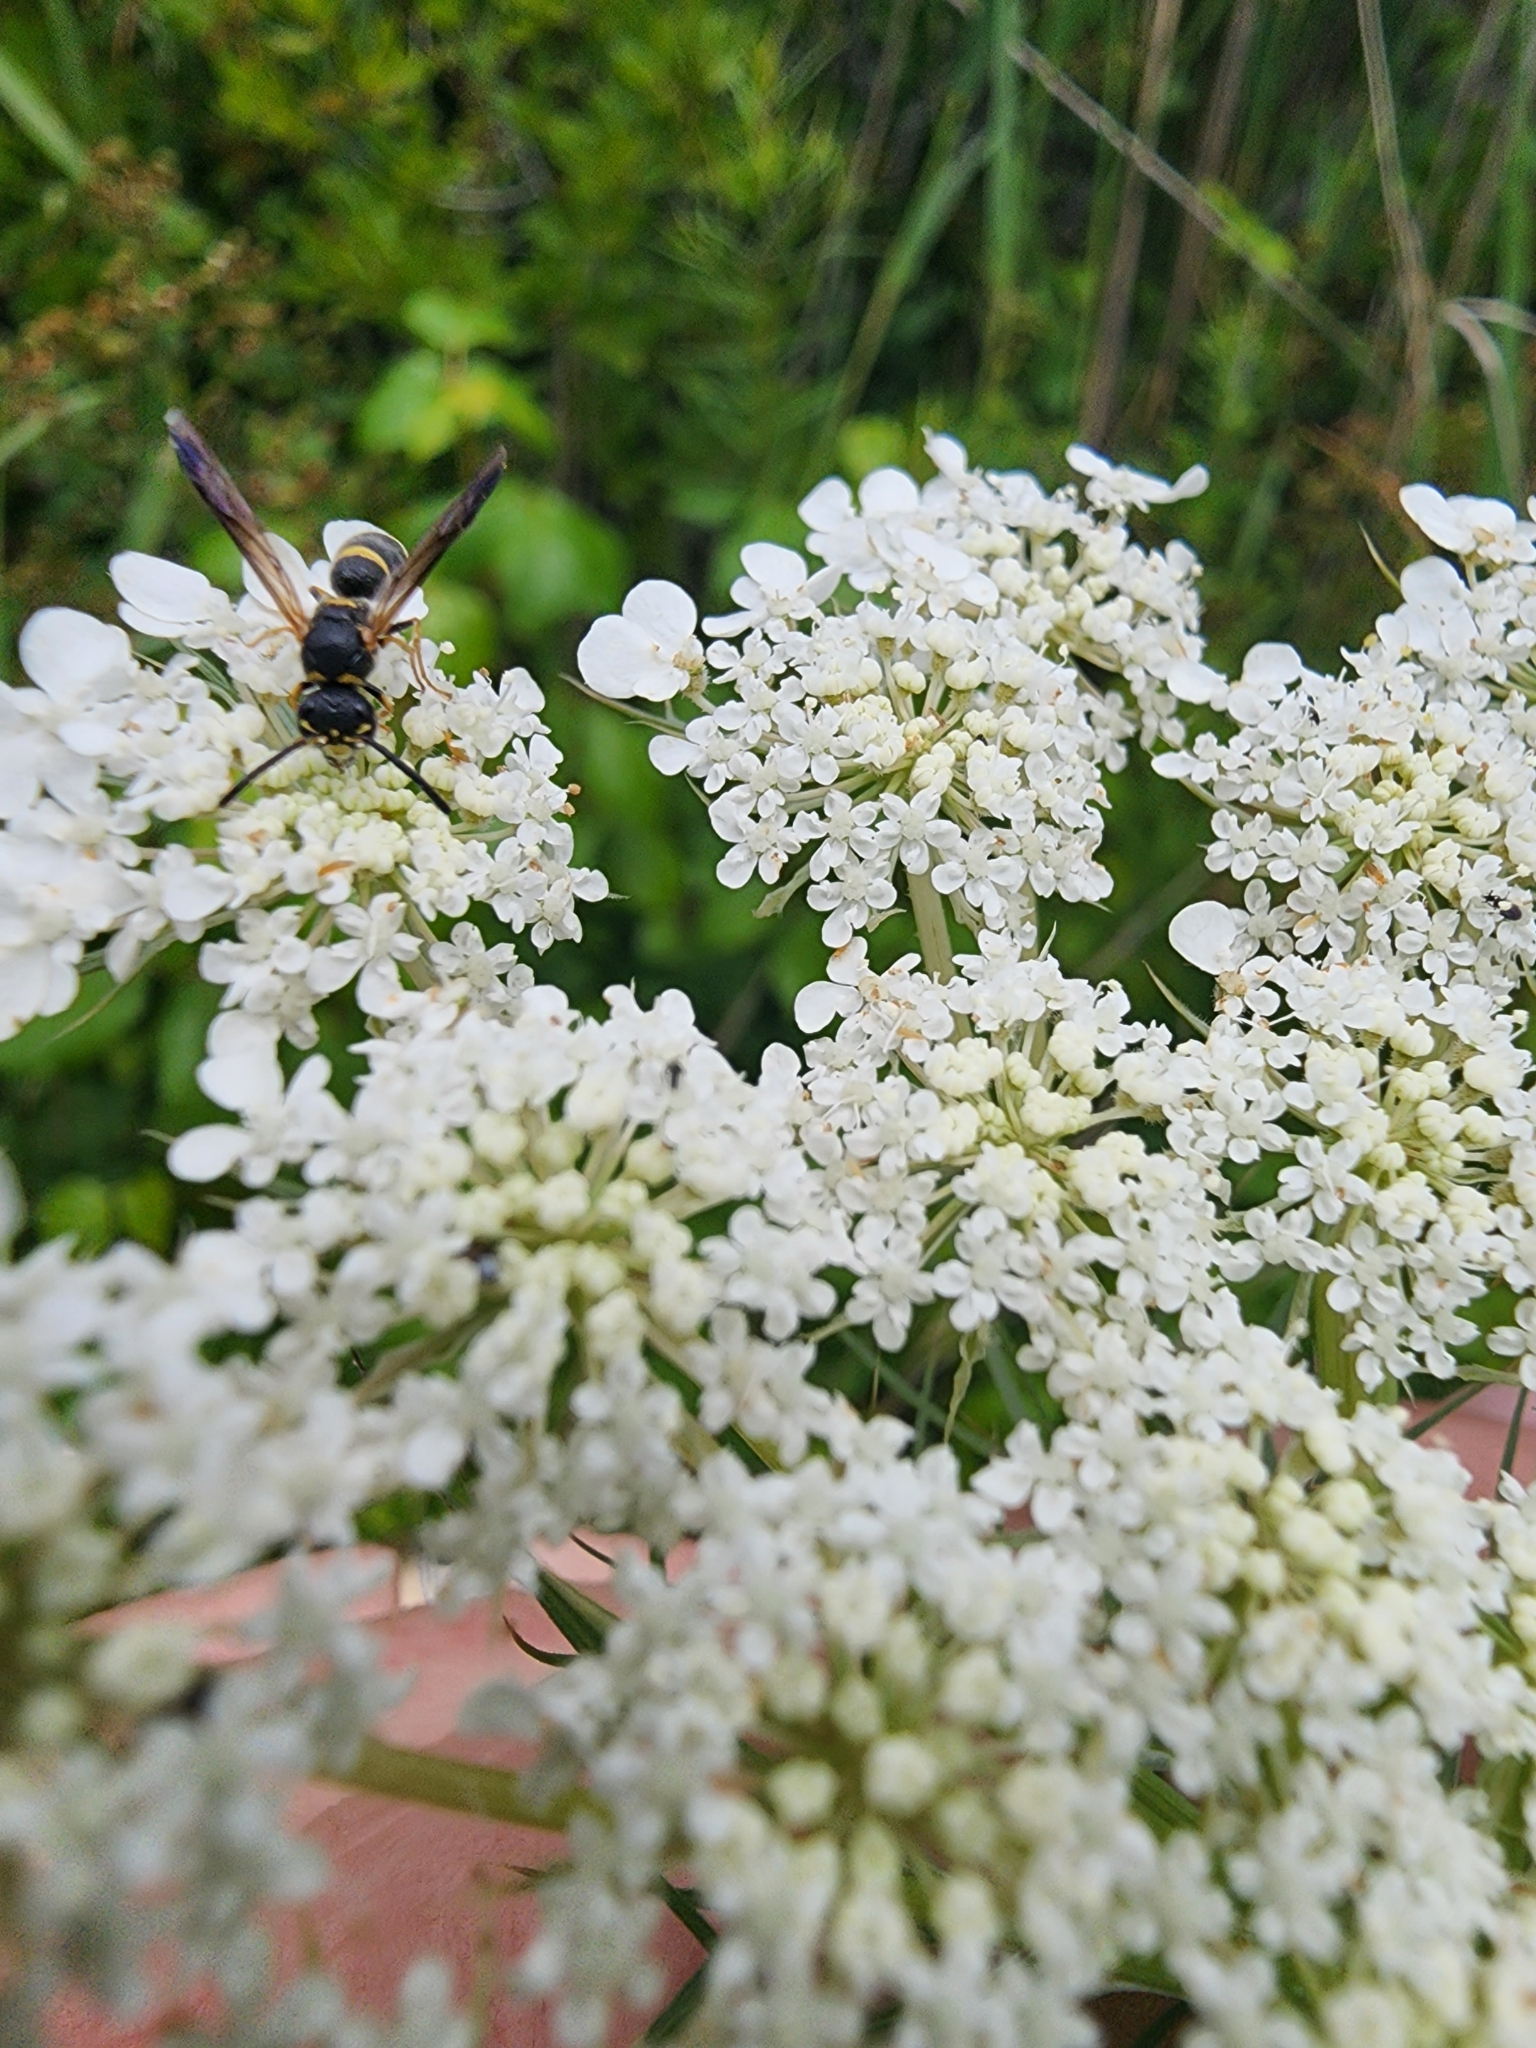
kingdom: Animalia
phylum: Arthropoda
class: Insecta
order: Hymenoptera
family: Eumenidae
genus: Parancistrocerus
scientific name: Parancistrocerus perennis
